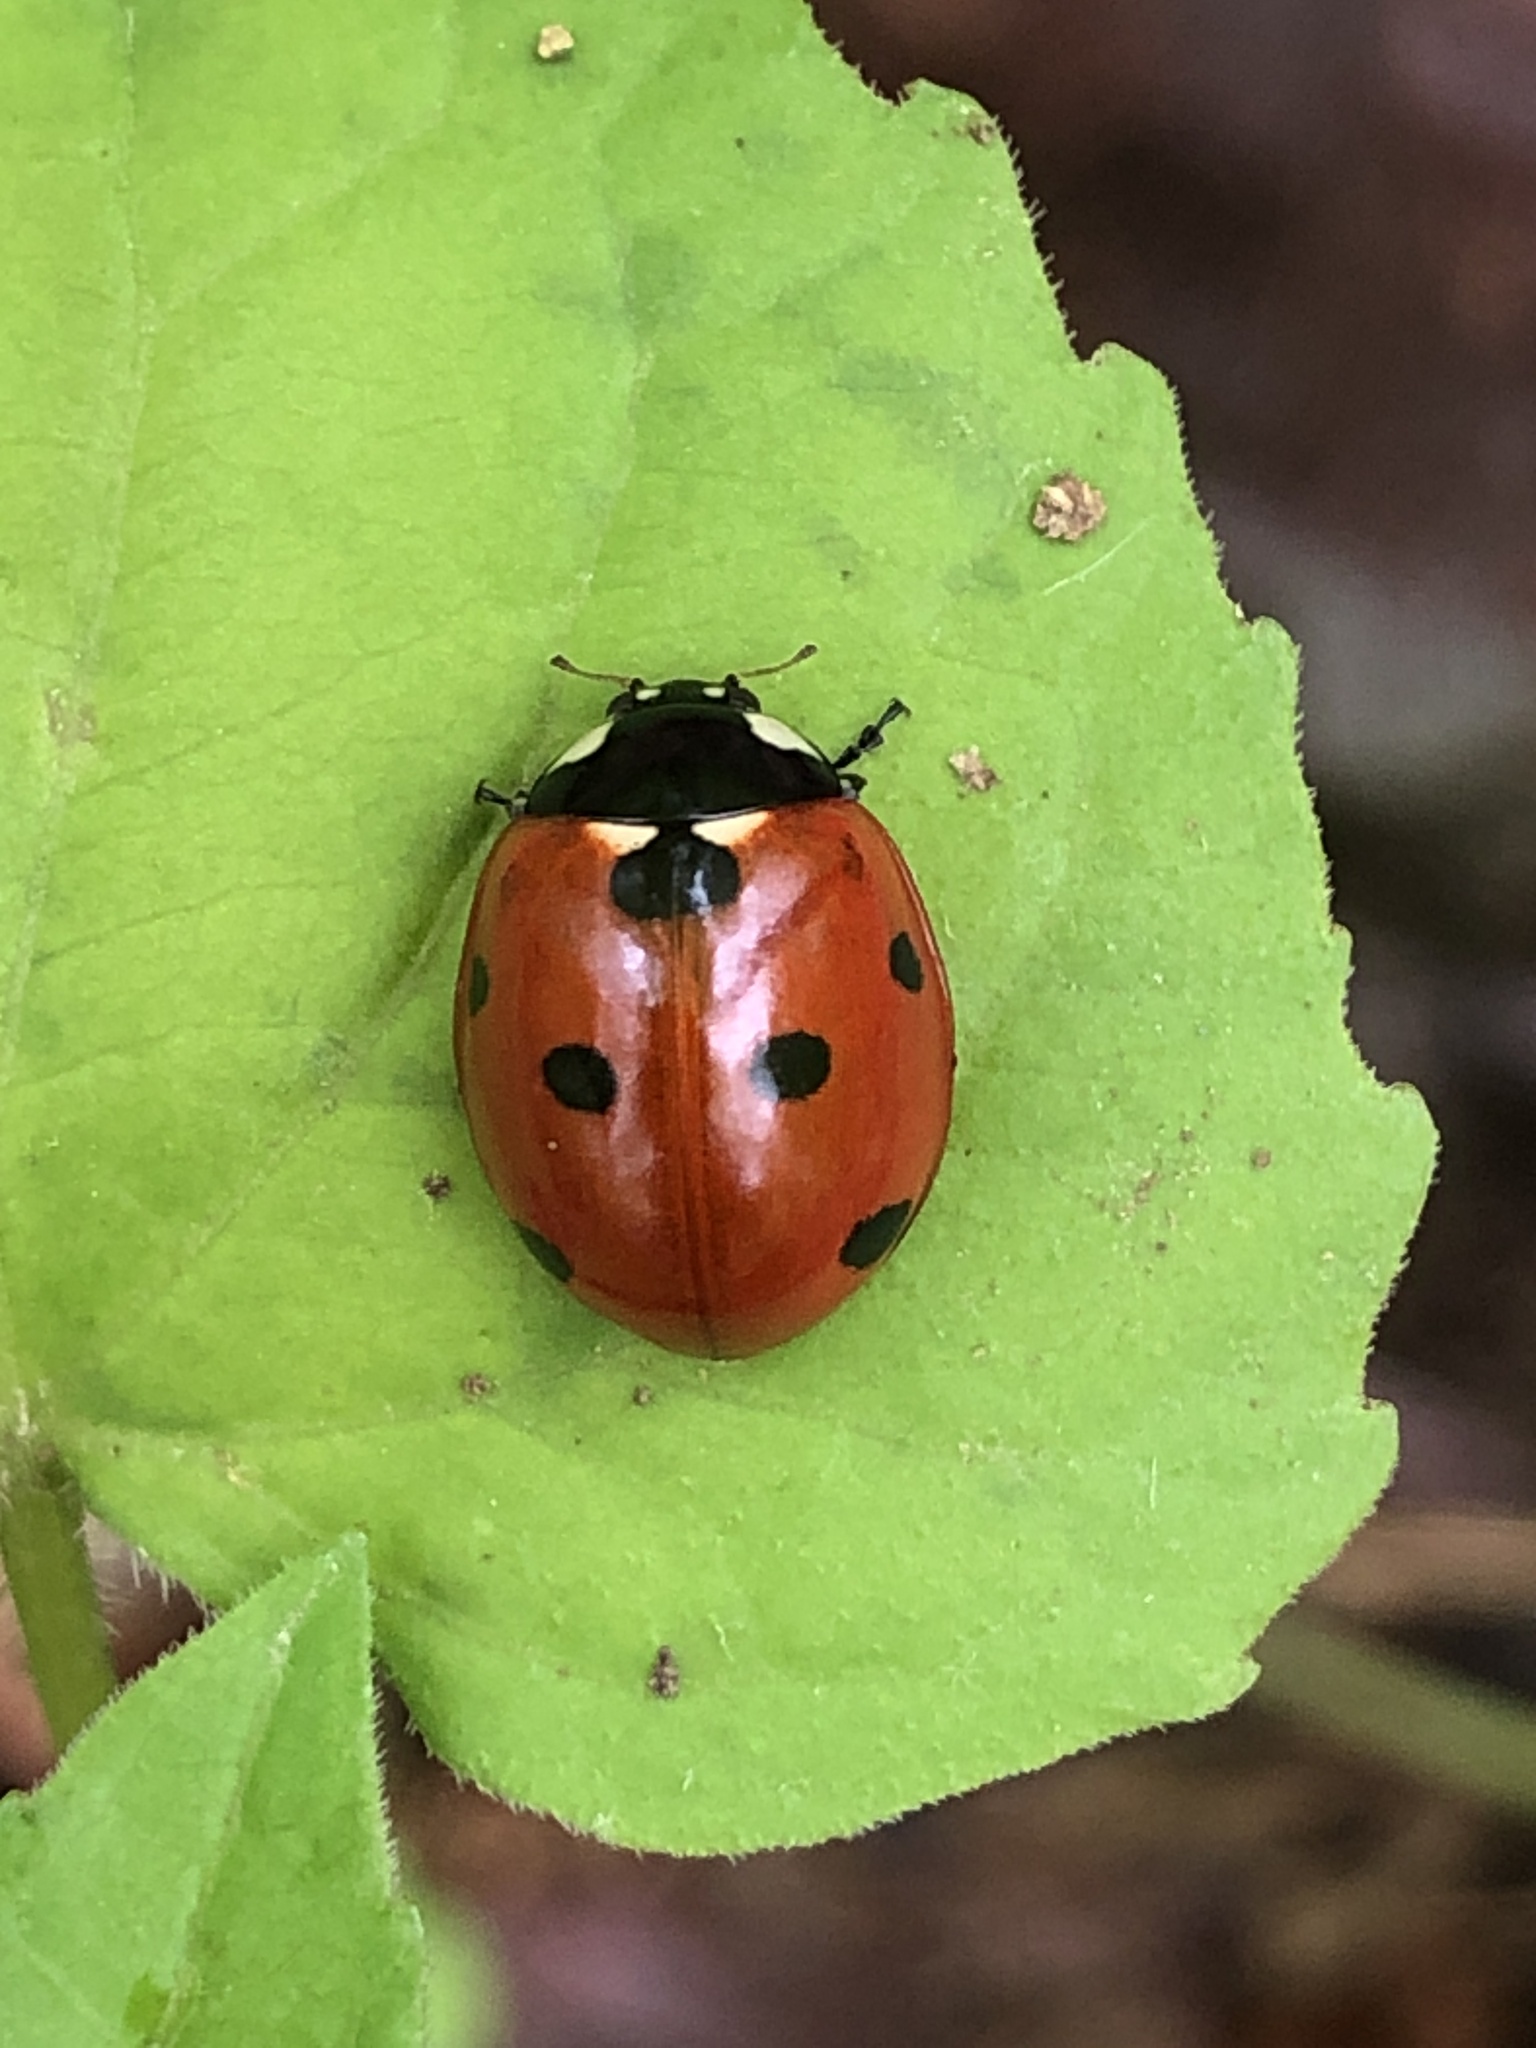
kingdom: Animalia
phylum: Arthropoda
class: Insecta
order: Coleoptera
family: Coccinellidae
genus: Coccinella
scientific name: Coccinella septempunctata
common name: Sevenspotted lady beetle
